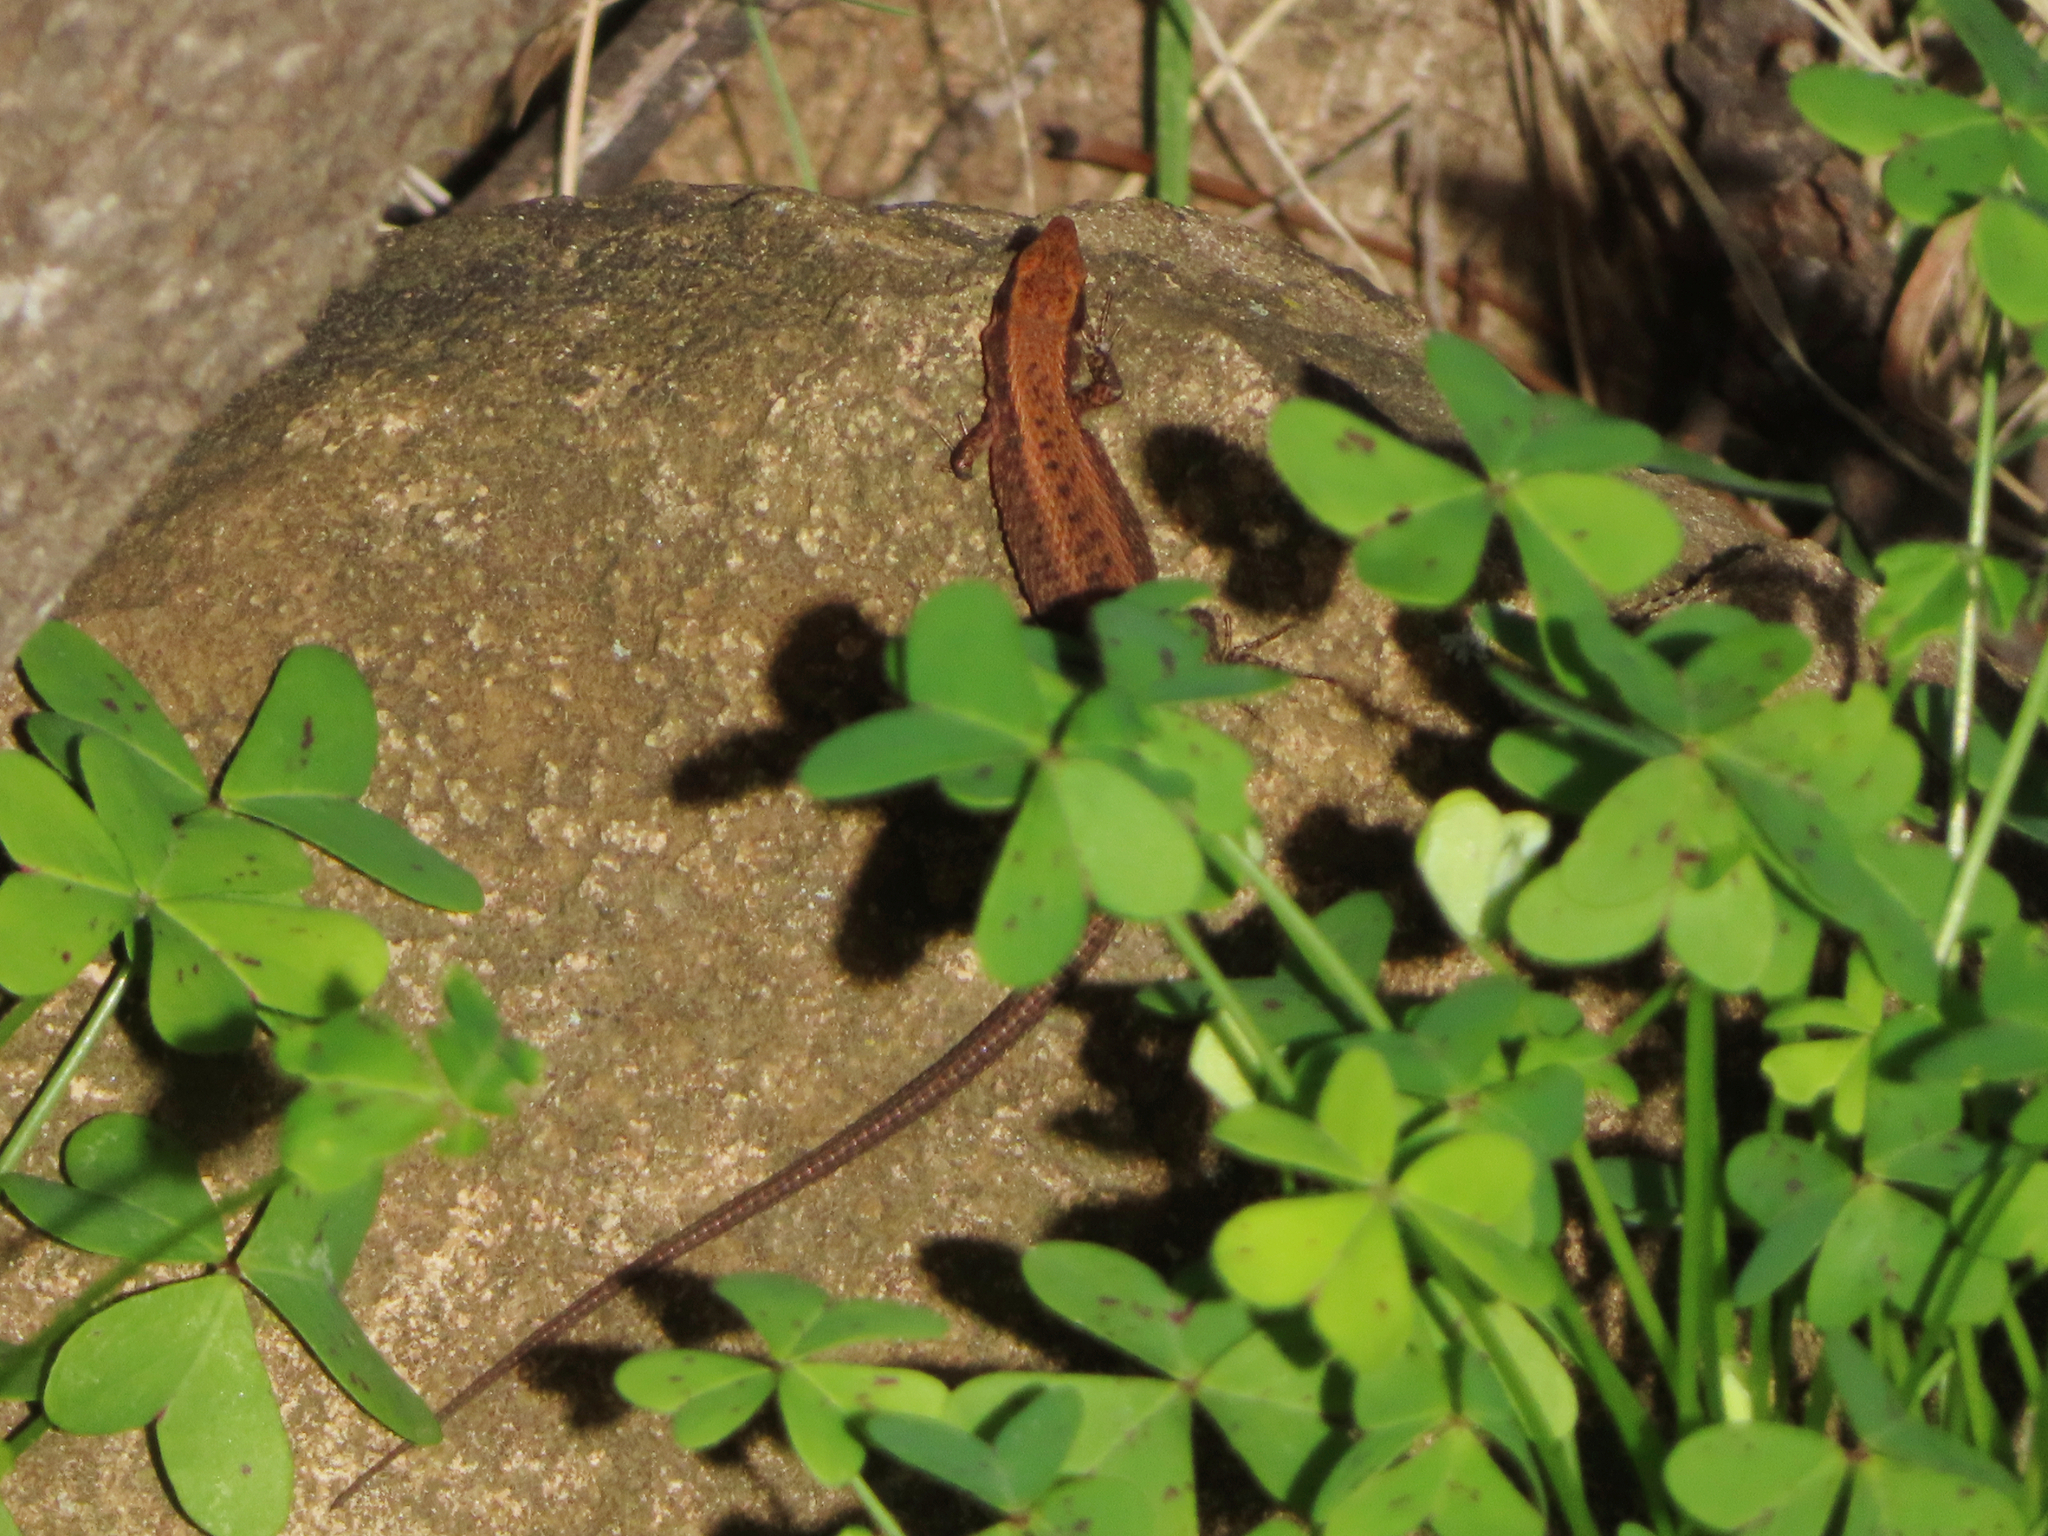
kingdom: Animalia
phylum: Chordata
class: Squamata
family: Lacertidae
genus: Algyroides
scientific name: Algyroides moreoticus
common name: Greek algyroides
